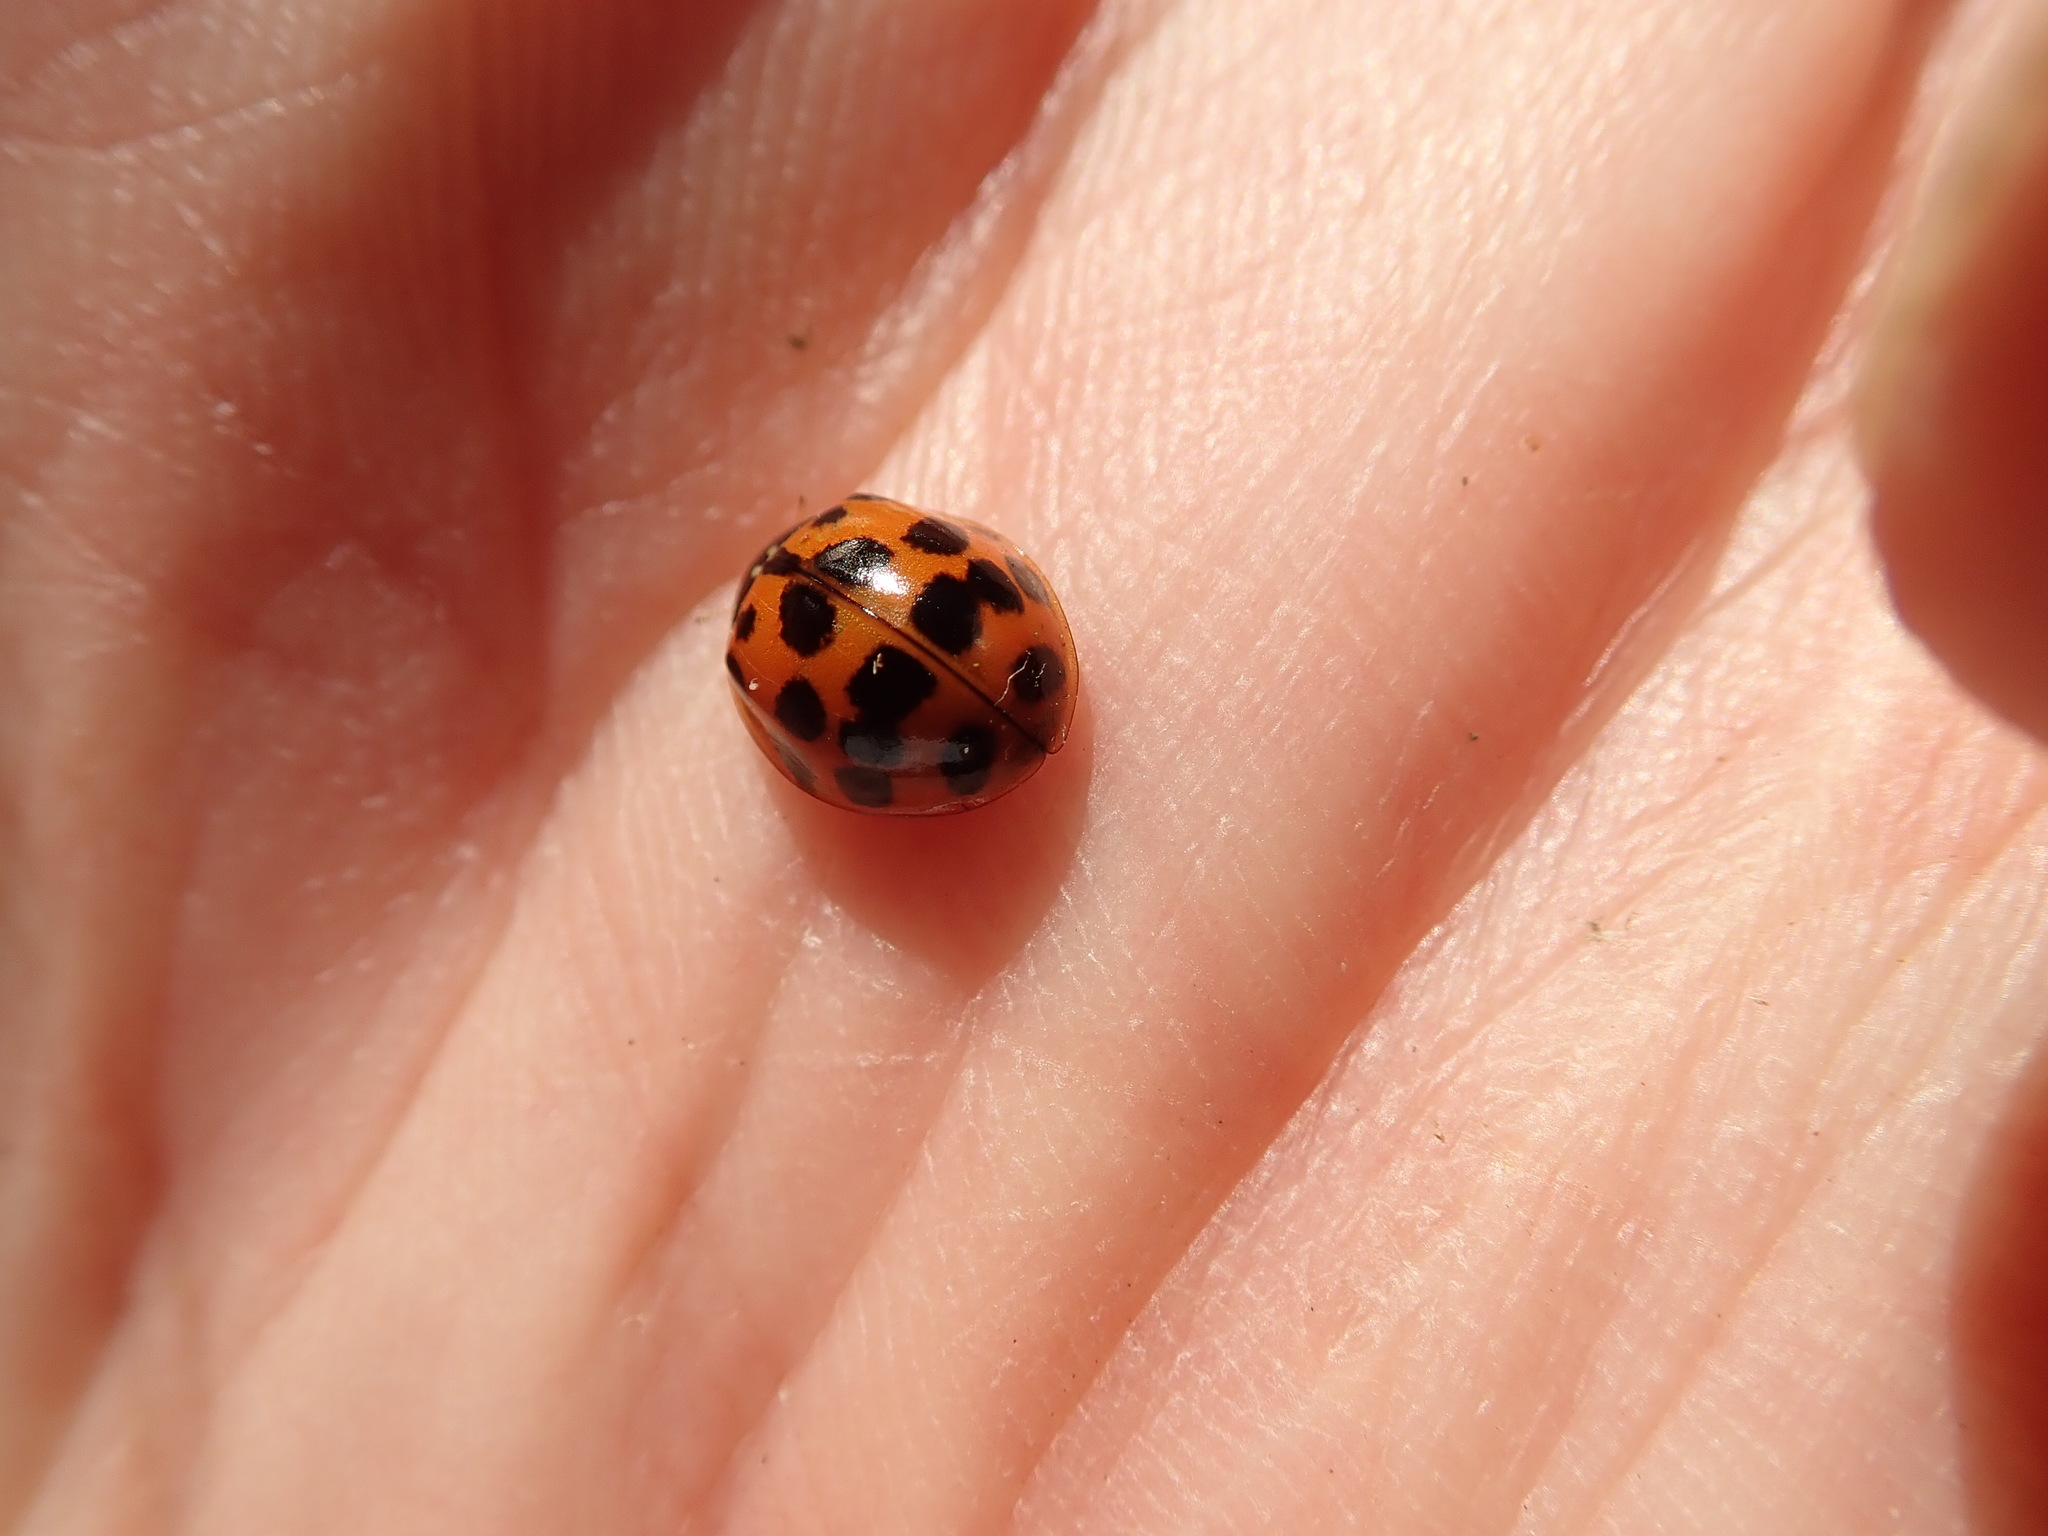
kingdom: Animalia
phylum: Arthropoda
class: Insecta
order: Coleoptera
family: Coccinellidae
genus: Harmonia
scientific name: Harmonia axyridis
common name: Harlequin ladybird
